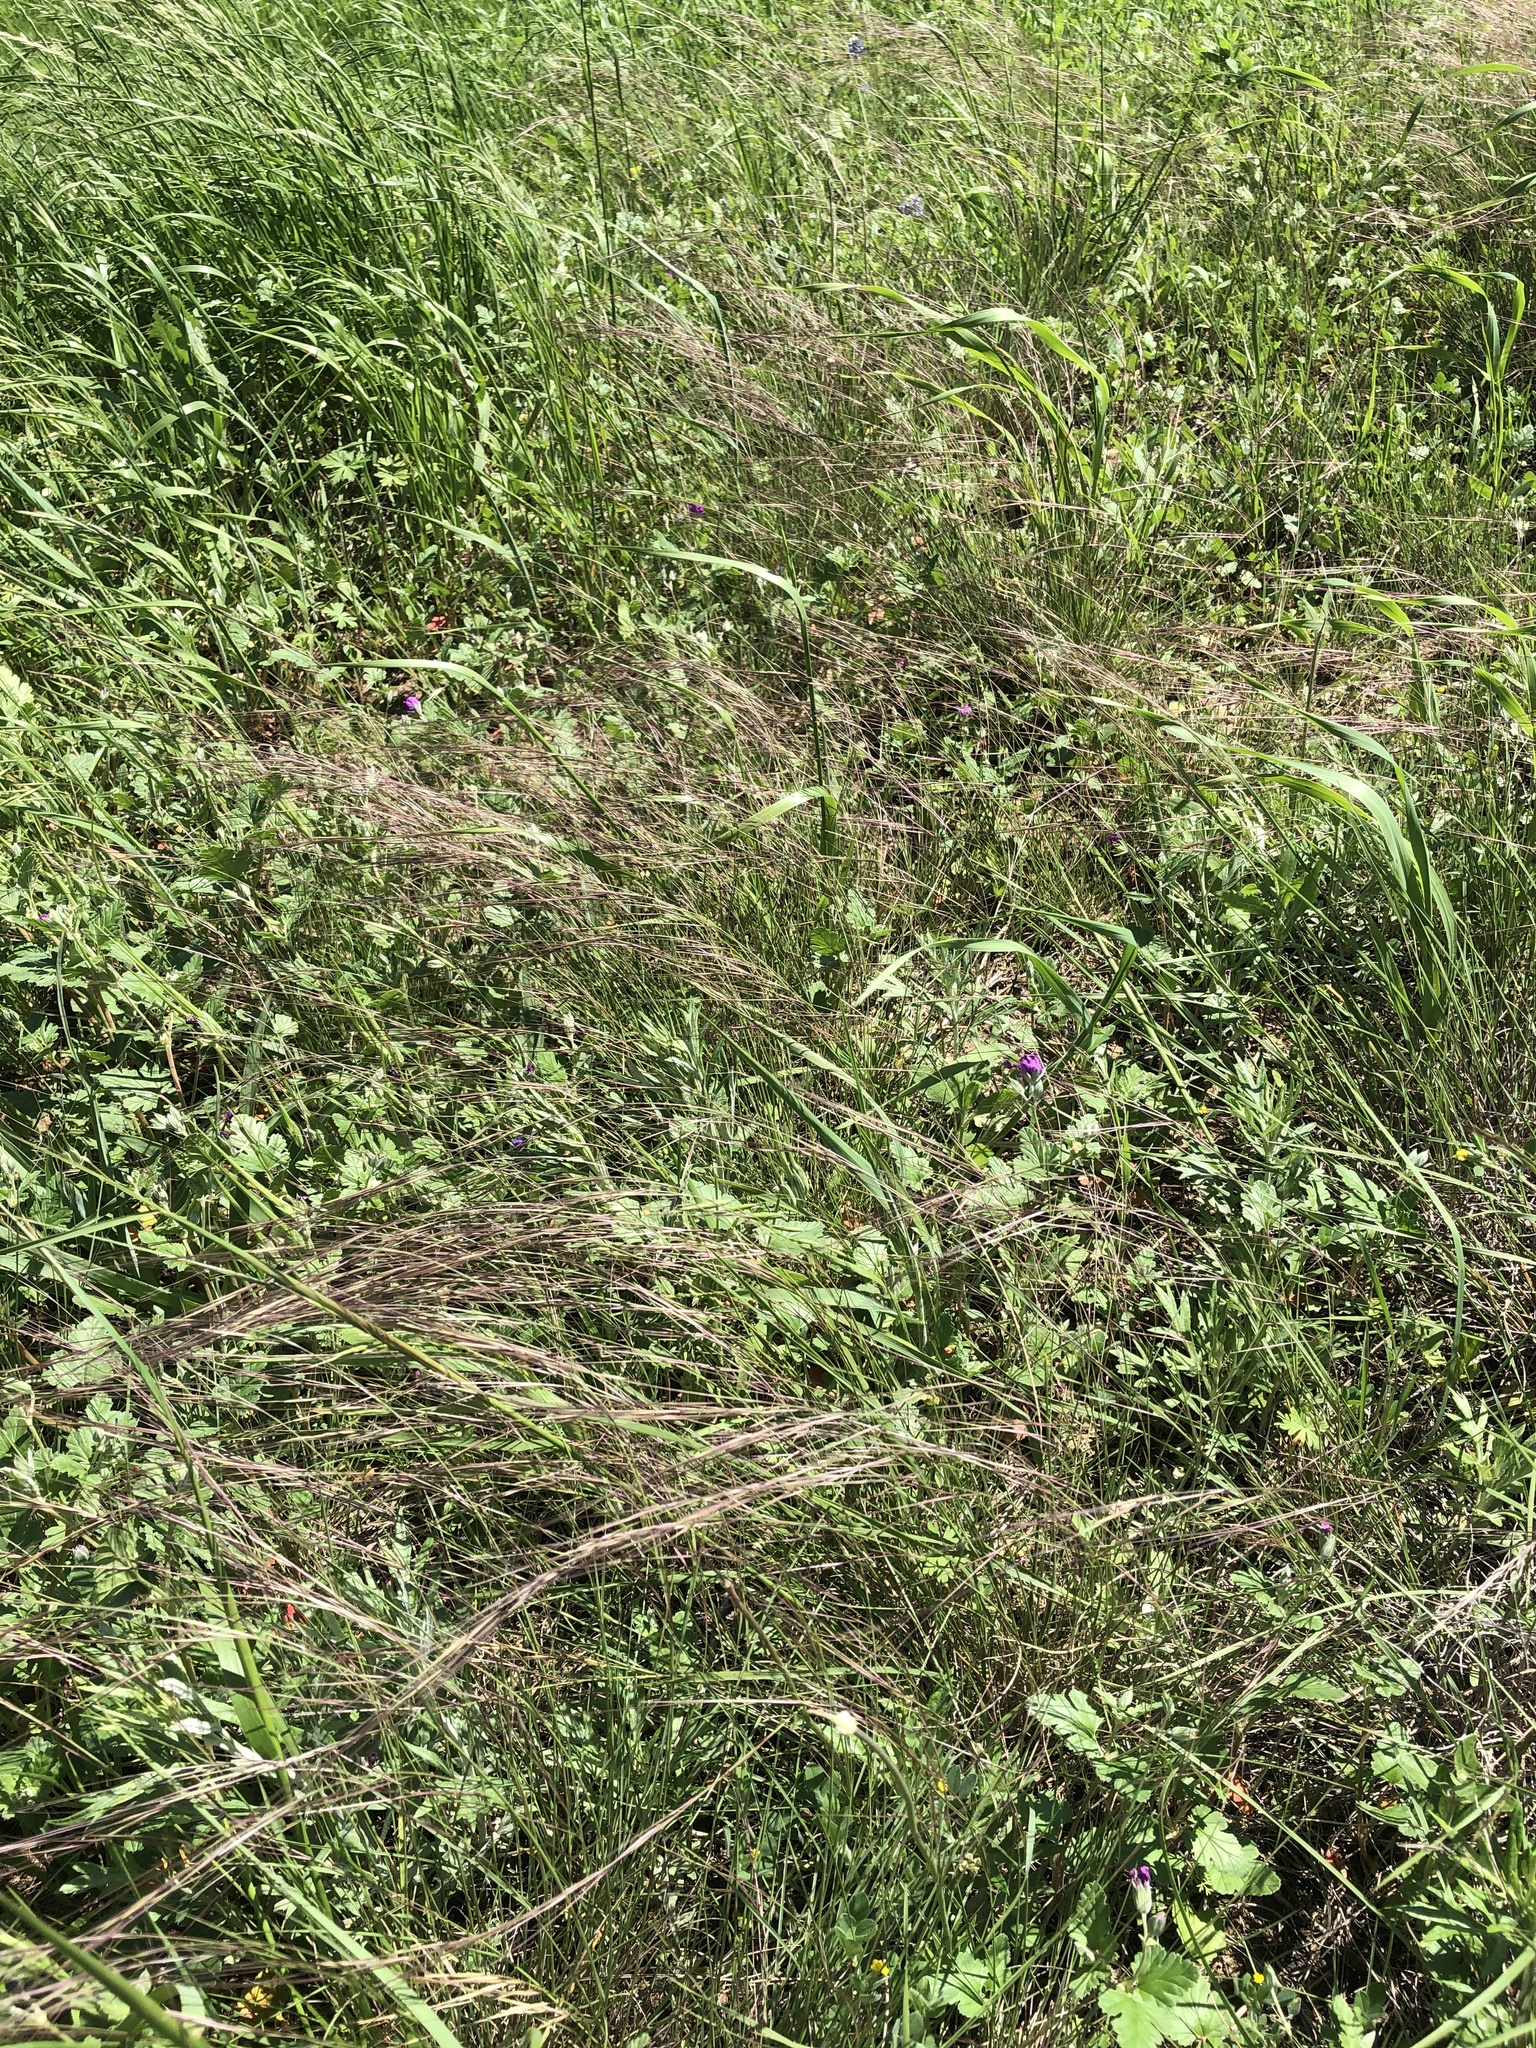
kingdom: Plantae
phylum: Tracheophyta
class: Liliopsida
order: Poales
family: Poaceae
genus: Aristida
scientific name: Aristida purpurea
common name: Purple threeawn
